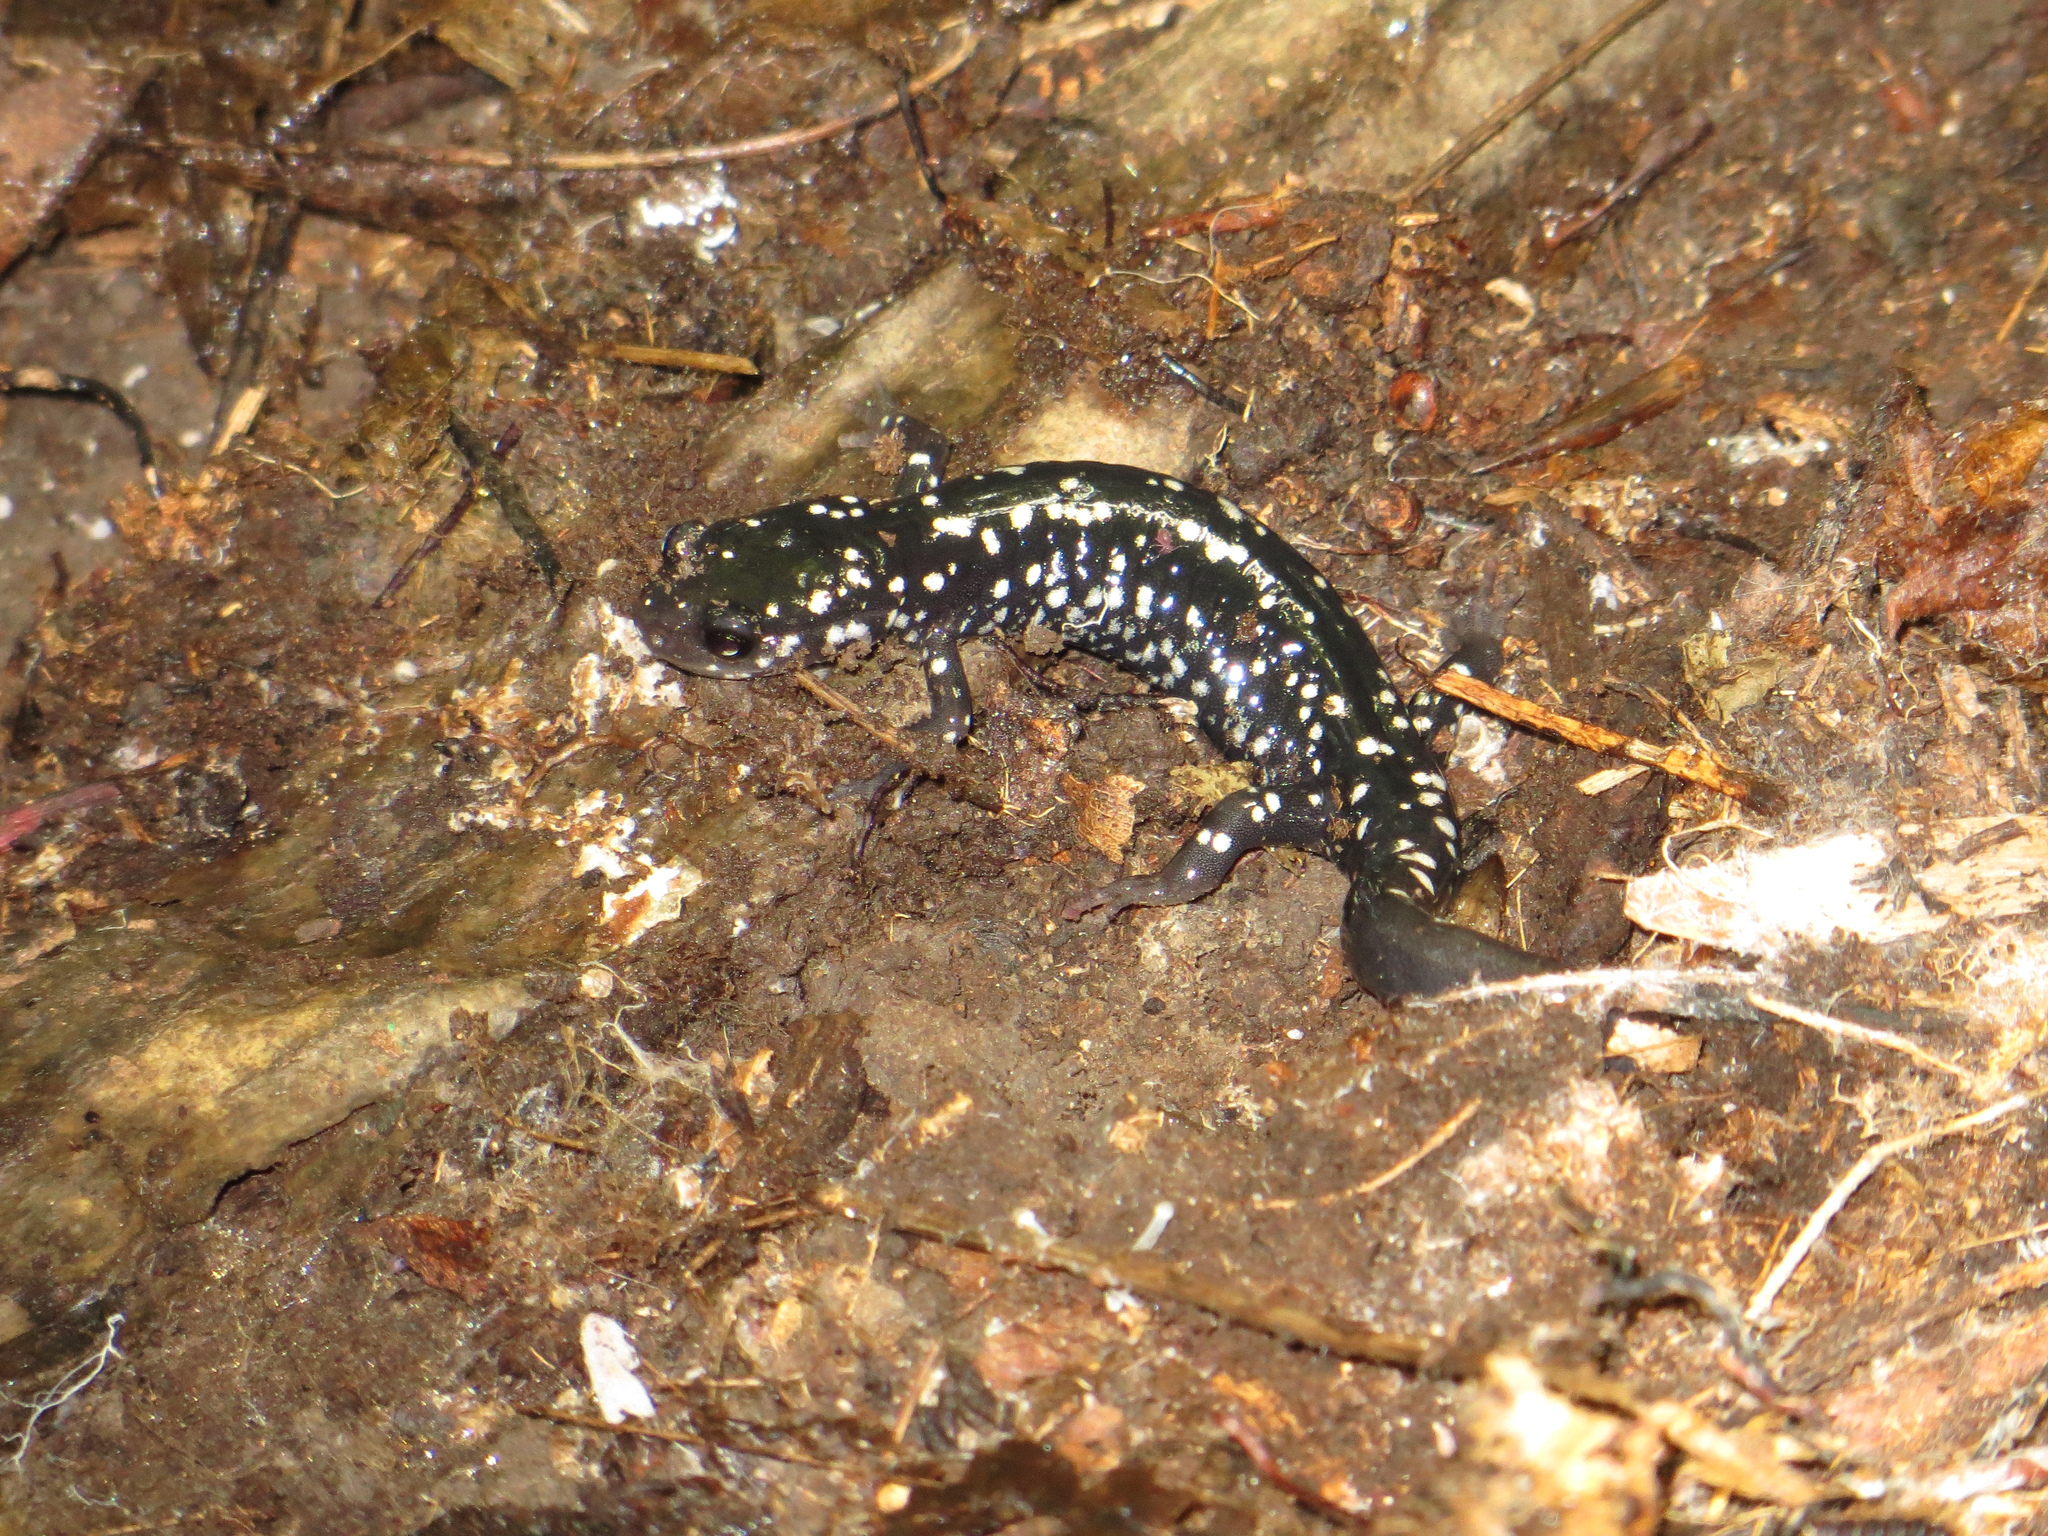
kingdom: Animalia
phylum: Chordata
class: Amphibia
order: Caudata
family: Plethodontidae
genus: Plethodon
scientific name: Plethodon glutinosus
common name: Northern slimy salamander
